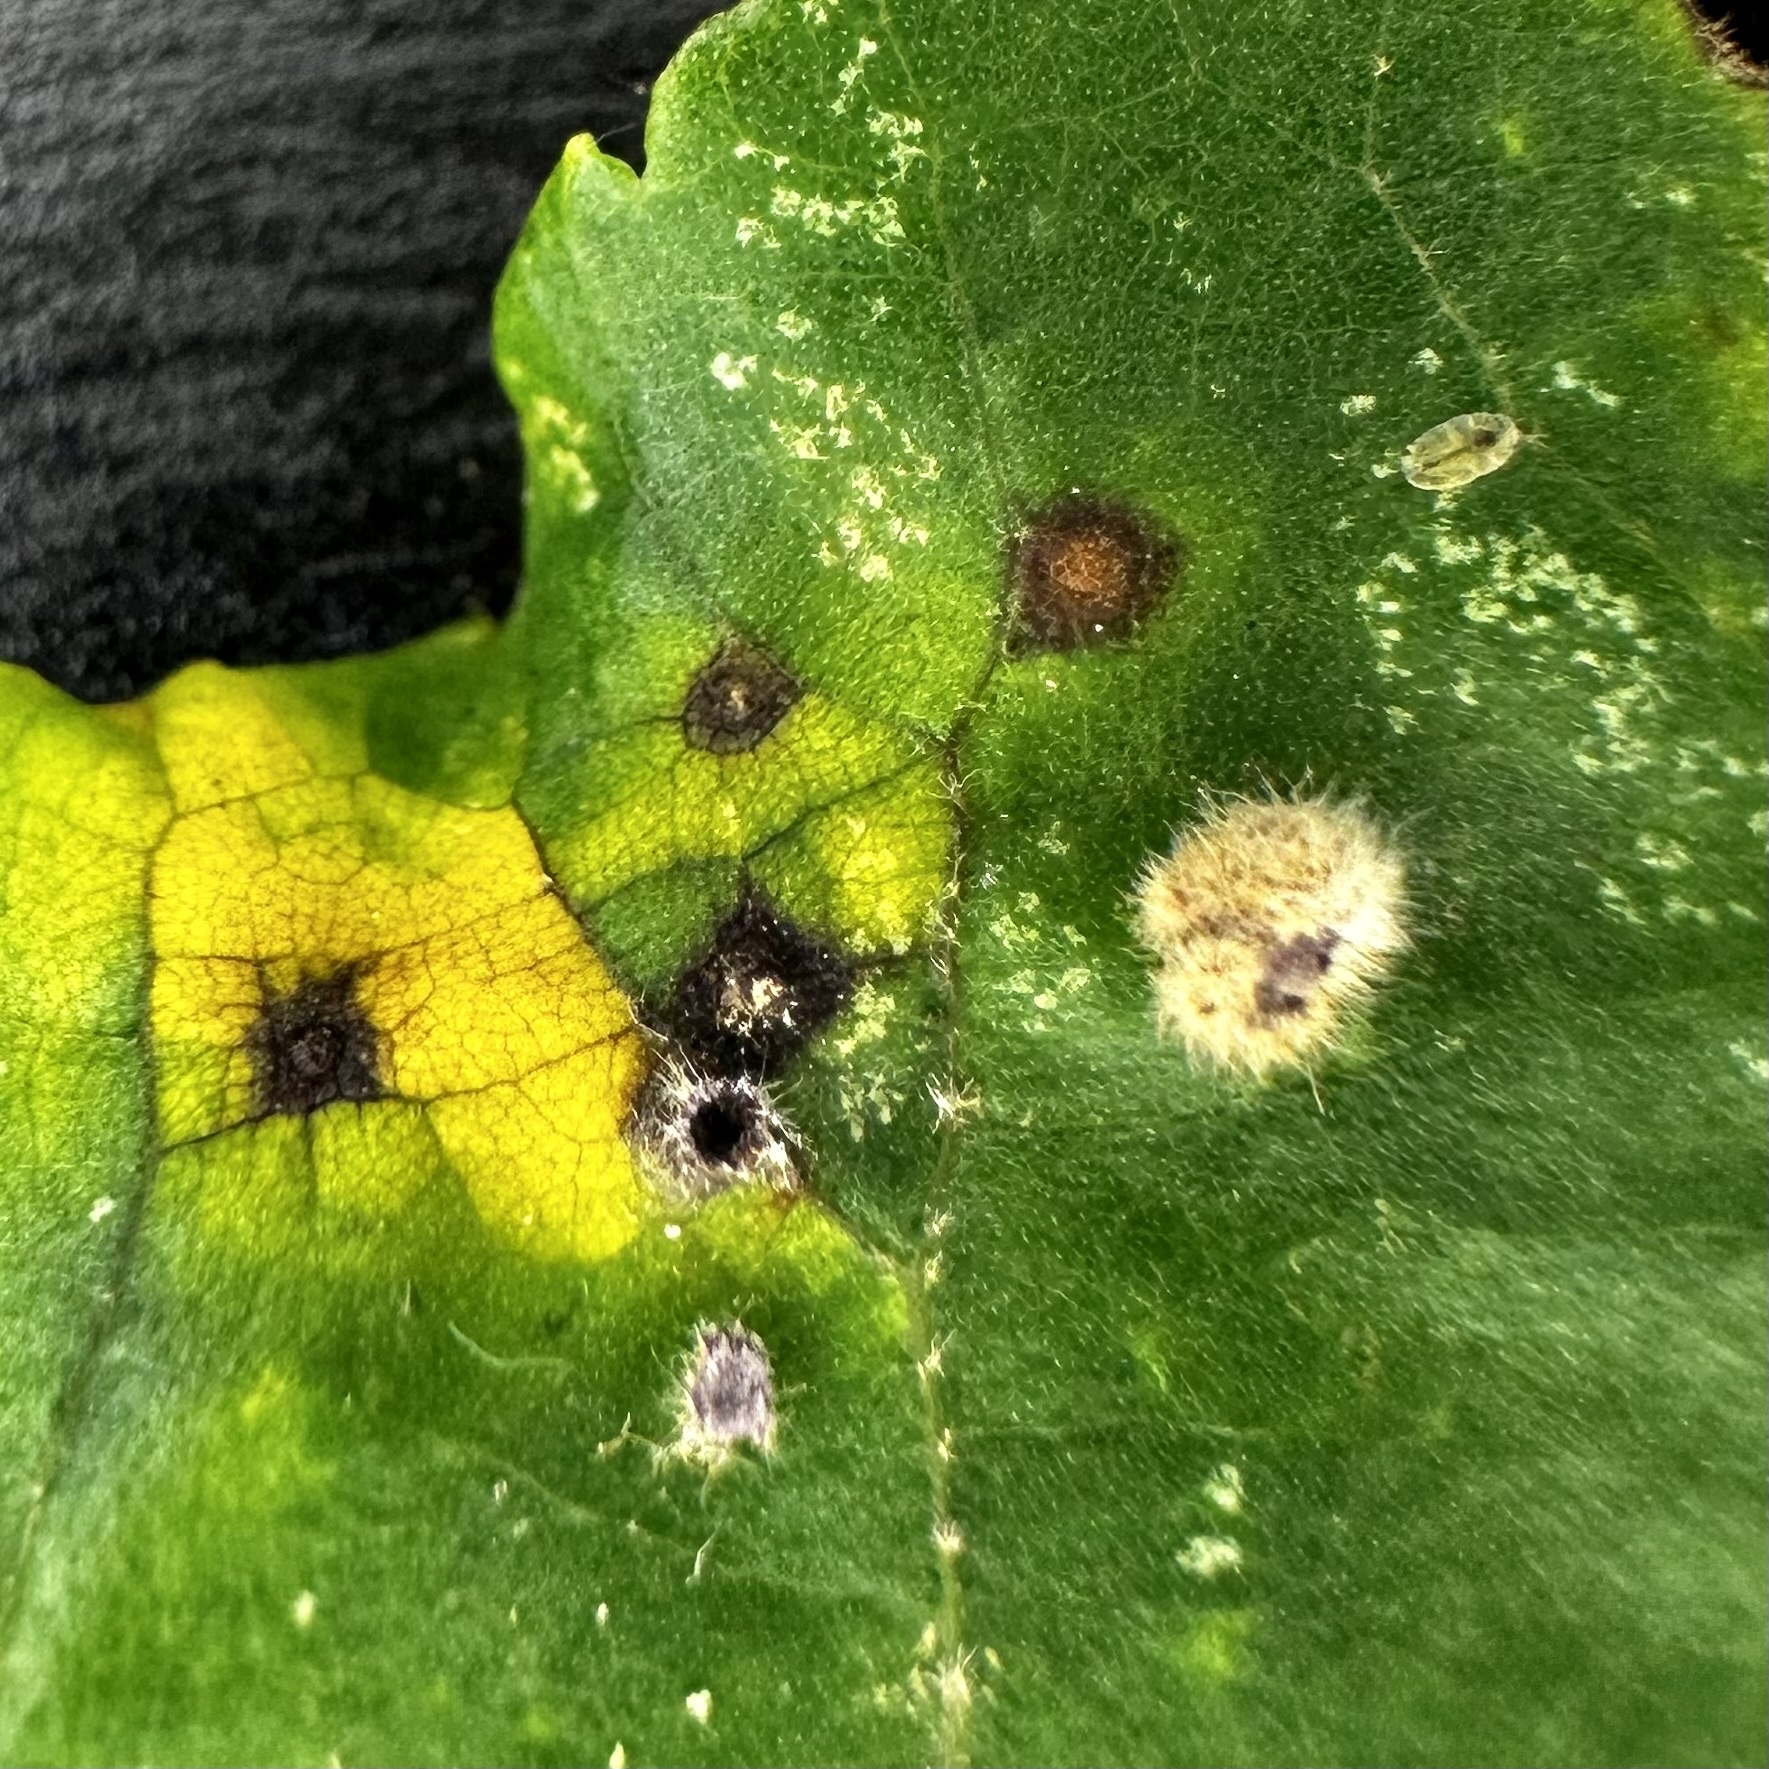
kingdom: Animalia
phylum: Arthropoda
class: Insecta
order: Diptera
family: Cecidomyiidae
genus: Caryomyia
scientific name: Caryomyia purpurea
